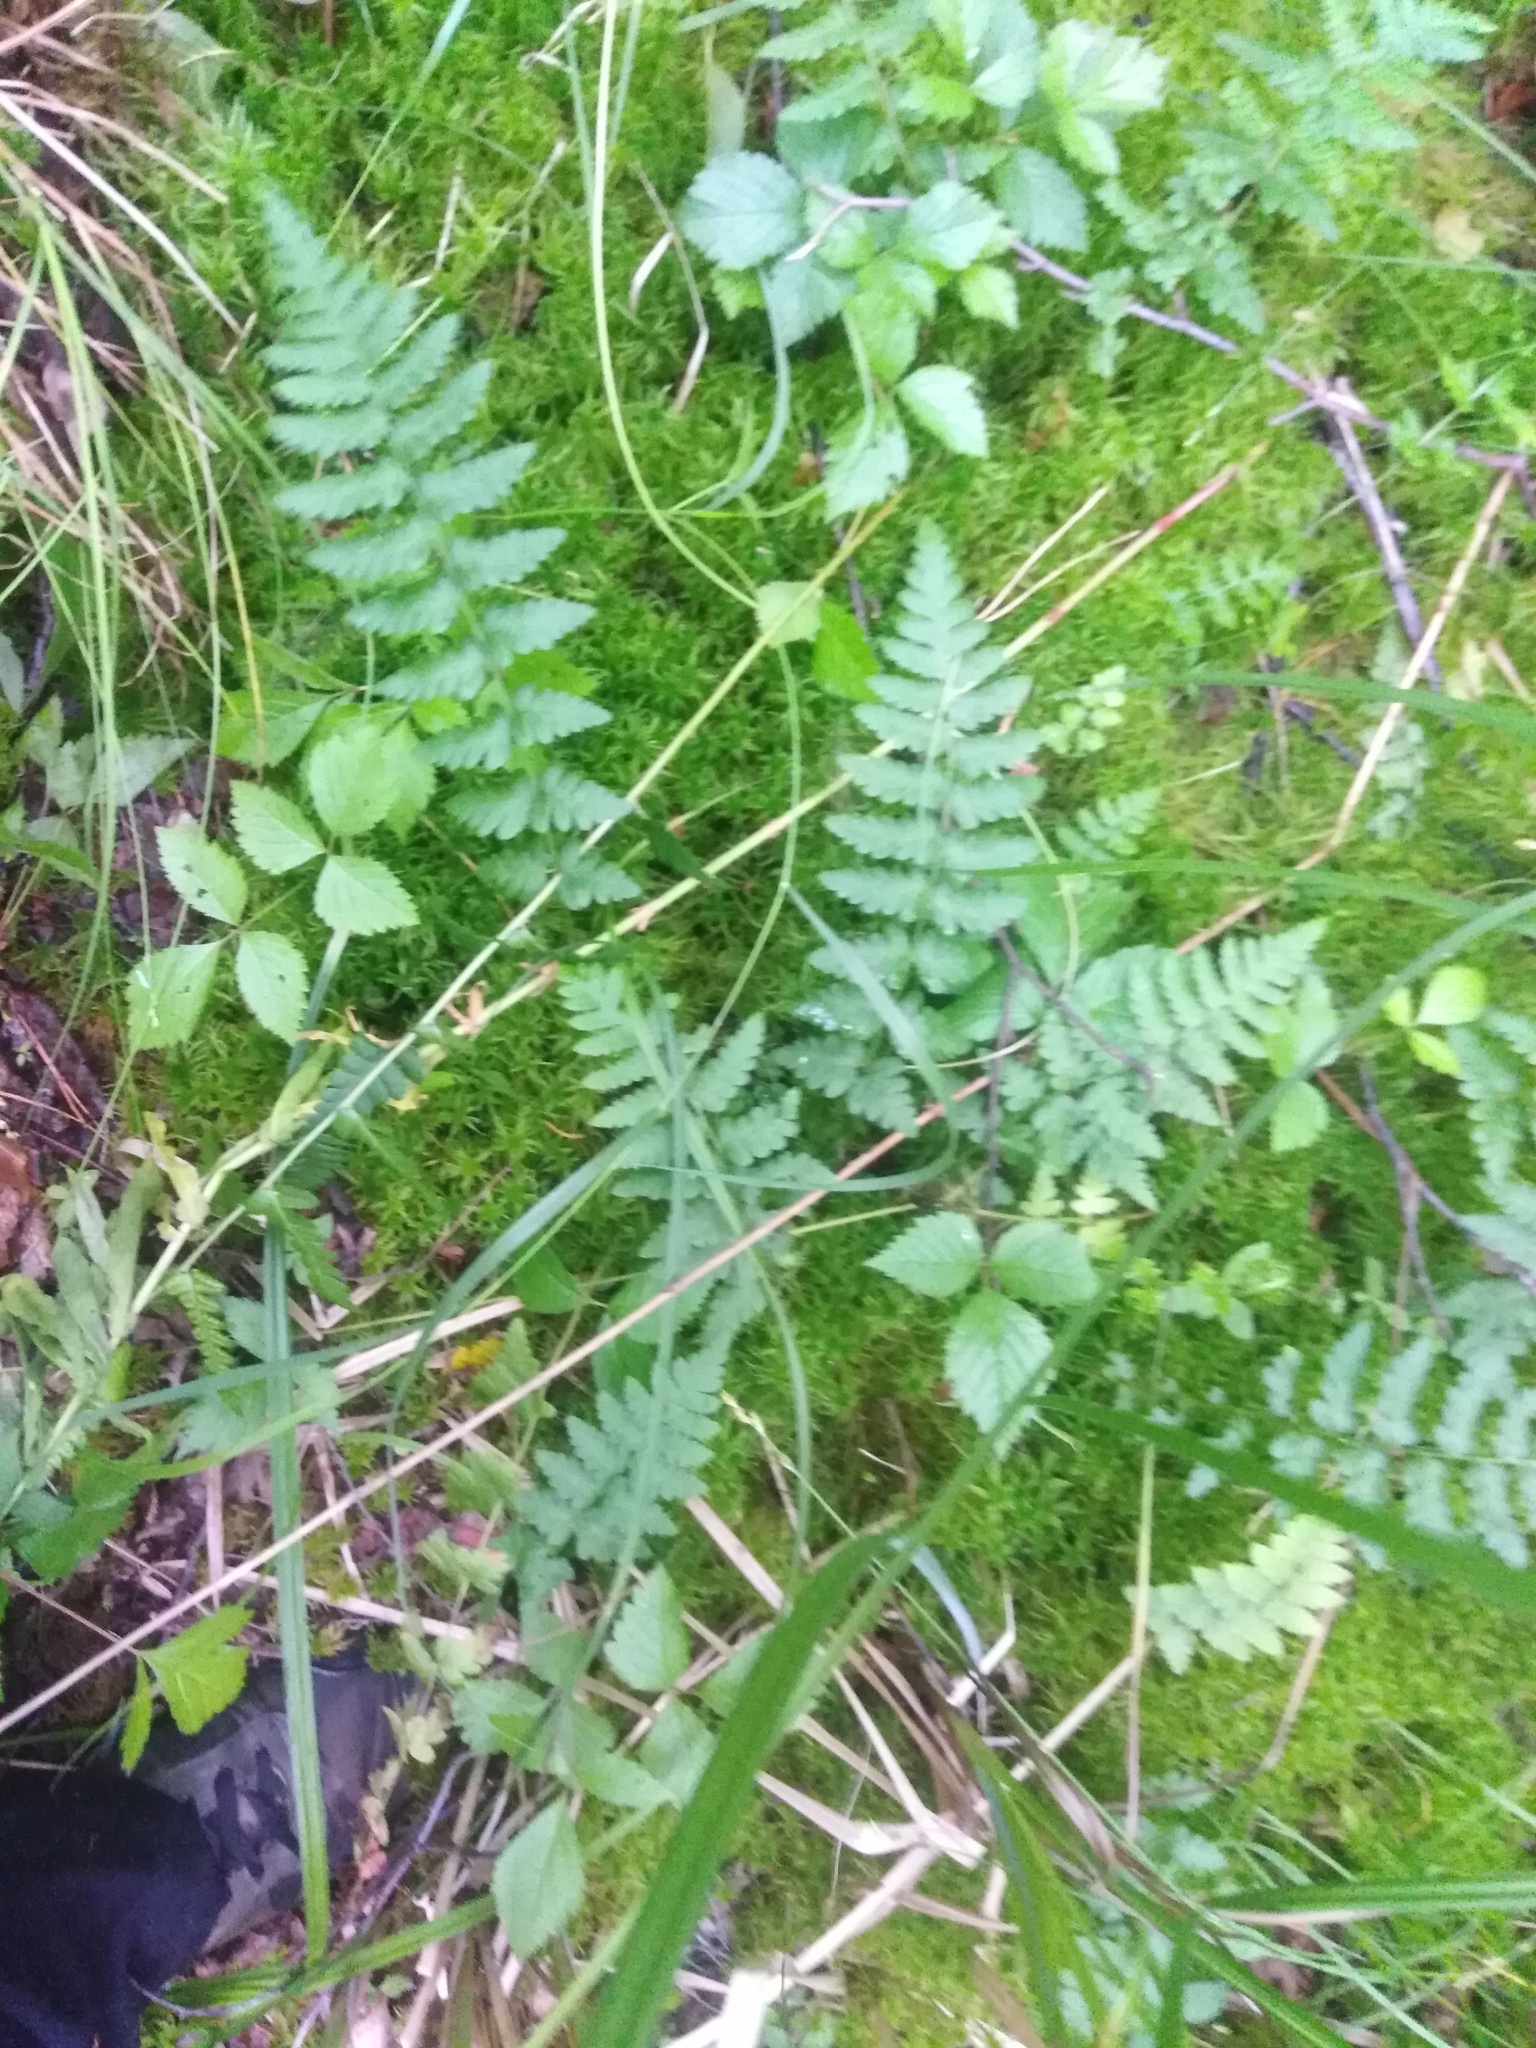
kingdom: Plantae
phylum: Tracheophyta
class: Polypodiopsida
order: Polypodiales
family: Dryopteridaceae
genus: Dryopteris
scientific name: Dryopteris cristata
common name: Crested wood fern
